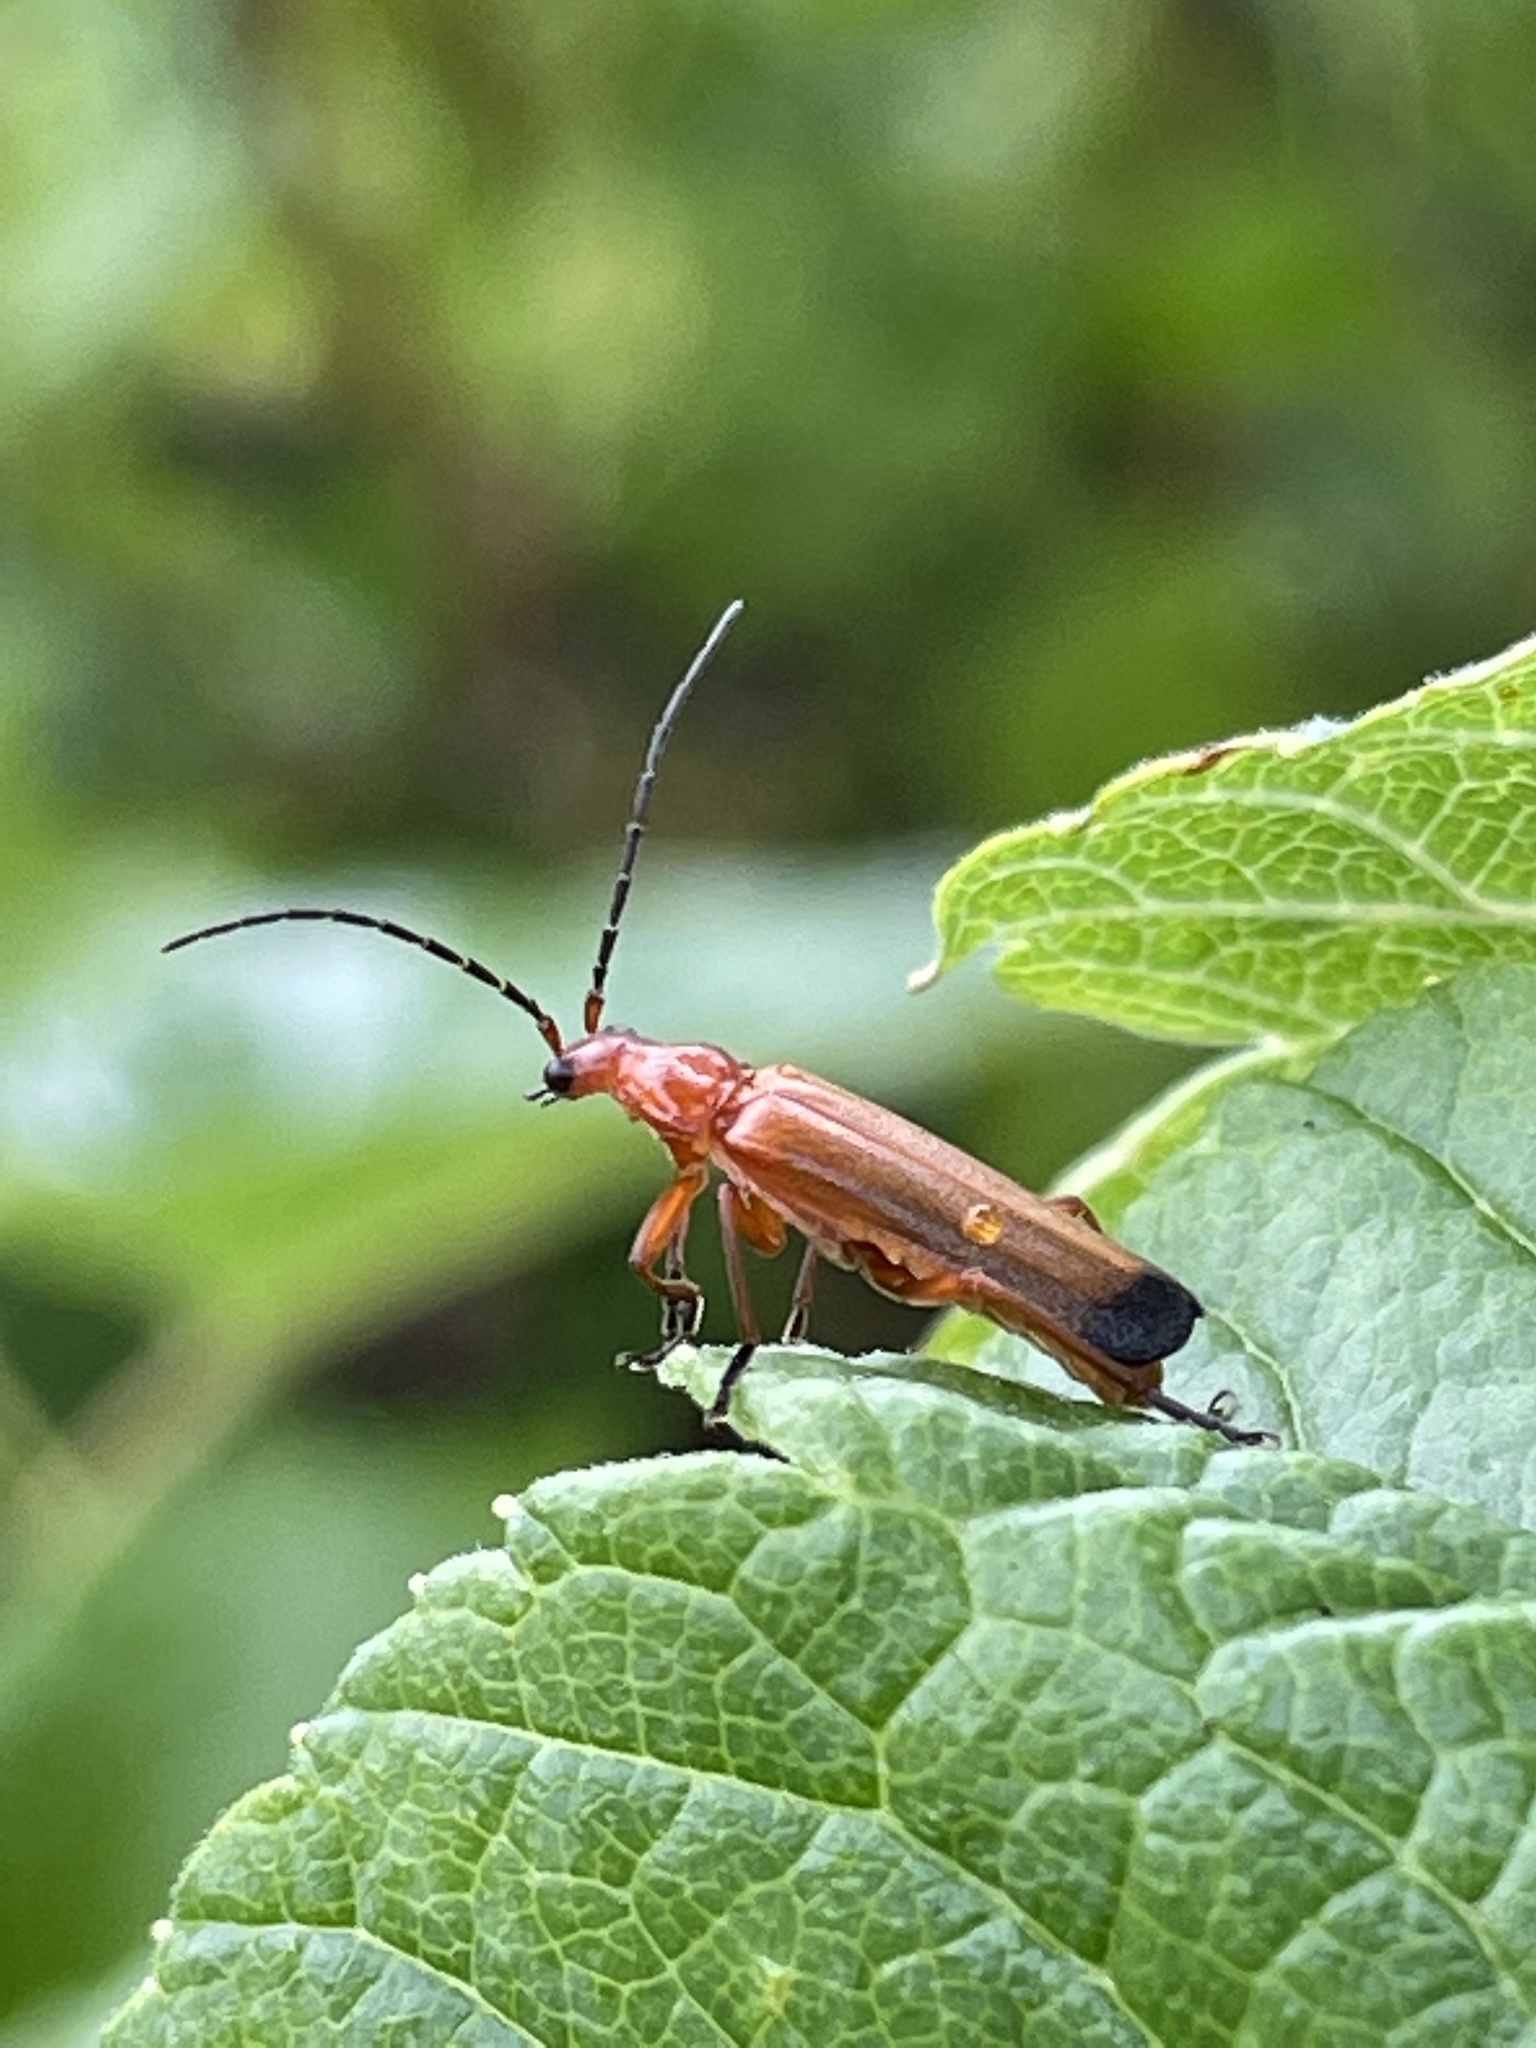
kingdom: Animalia
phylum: Arthropoda
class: Insecta
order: Coleoptera
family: Cantharidae
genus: Rhagonycha
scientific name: Rhagonycha fulva
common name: Common red soldier beetle
